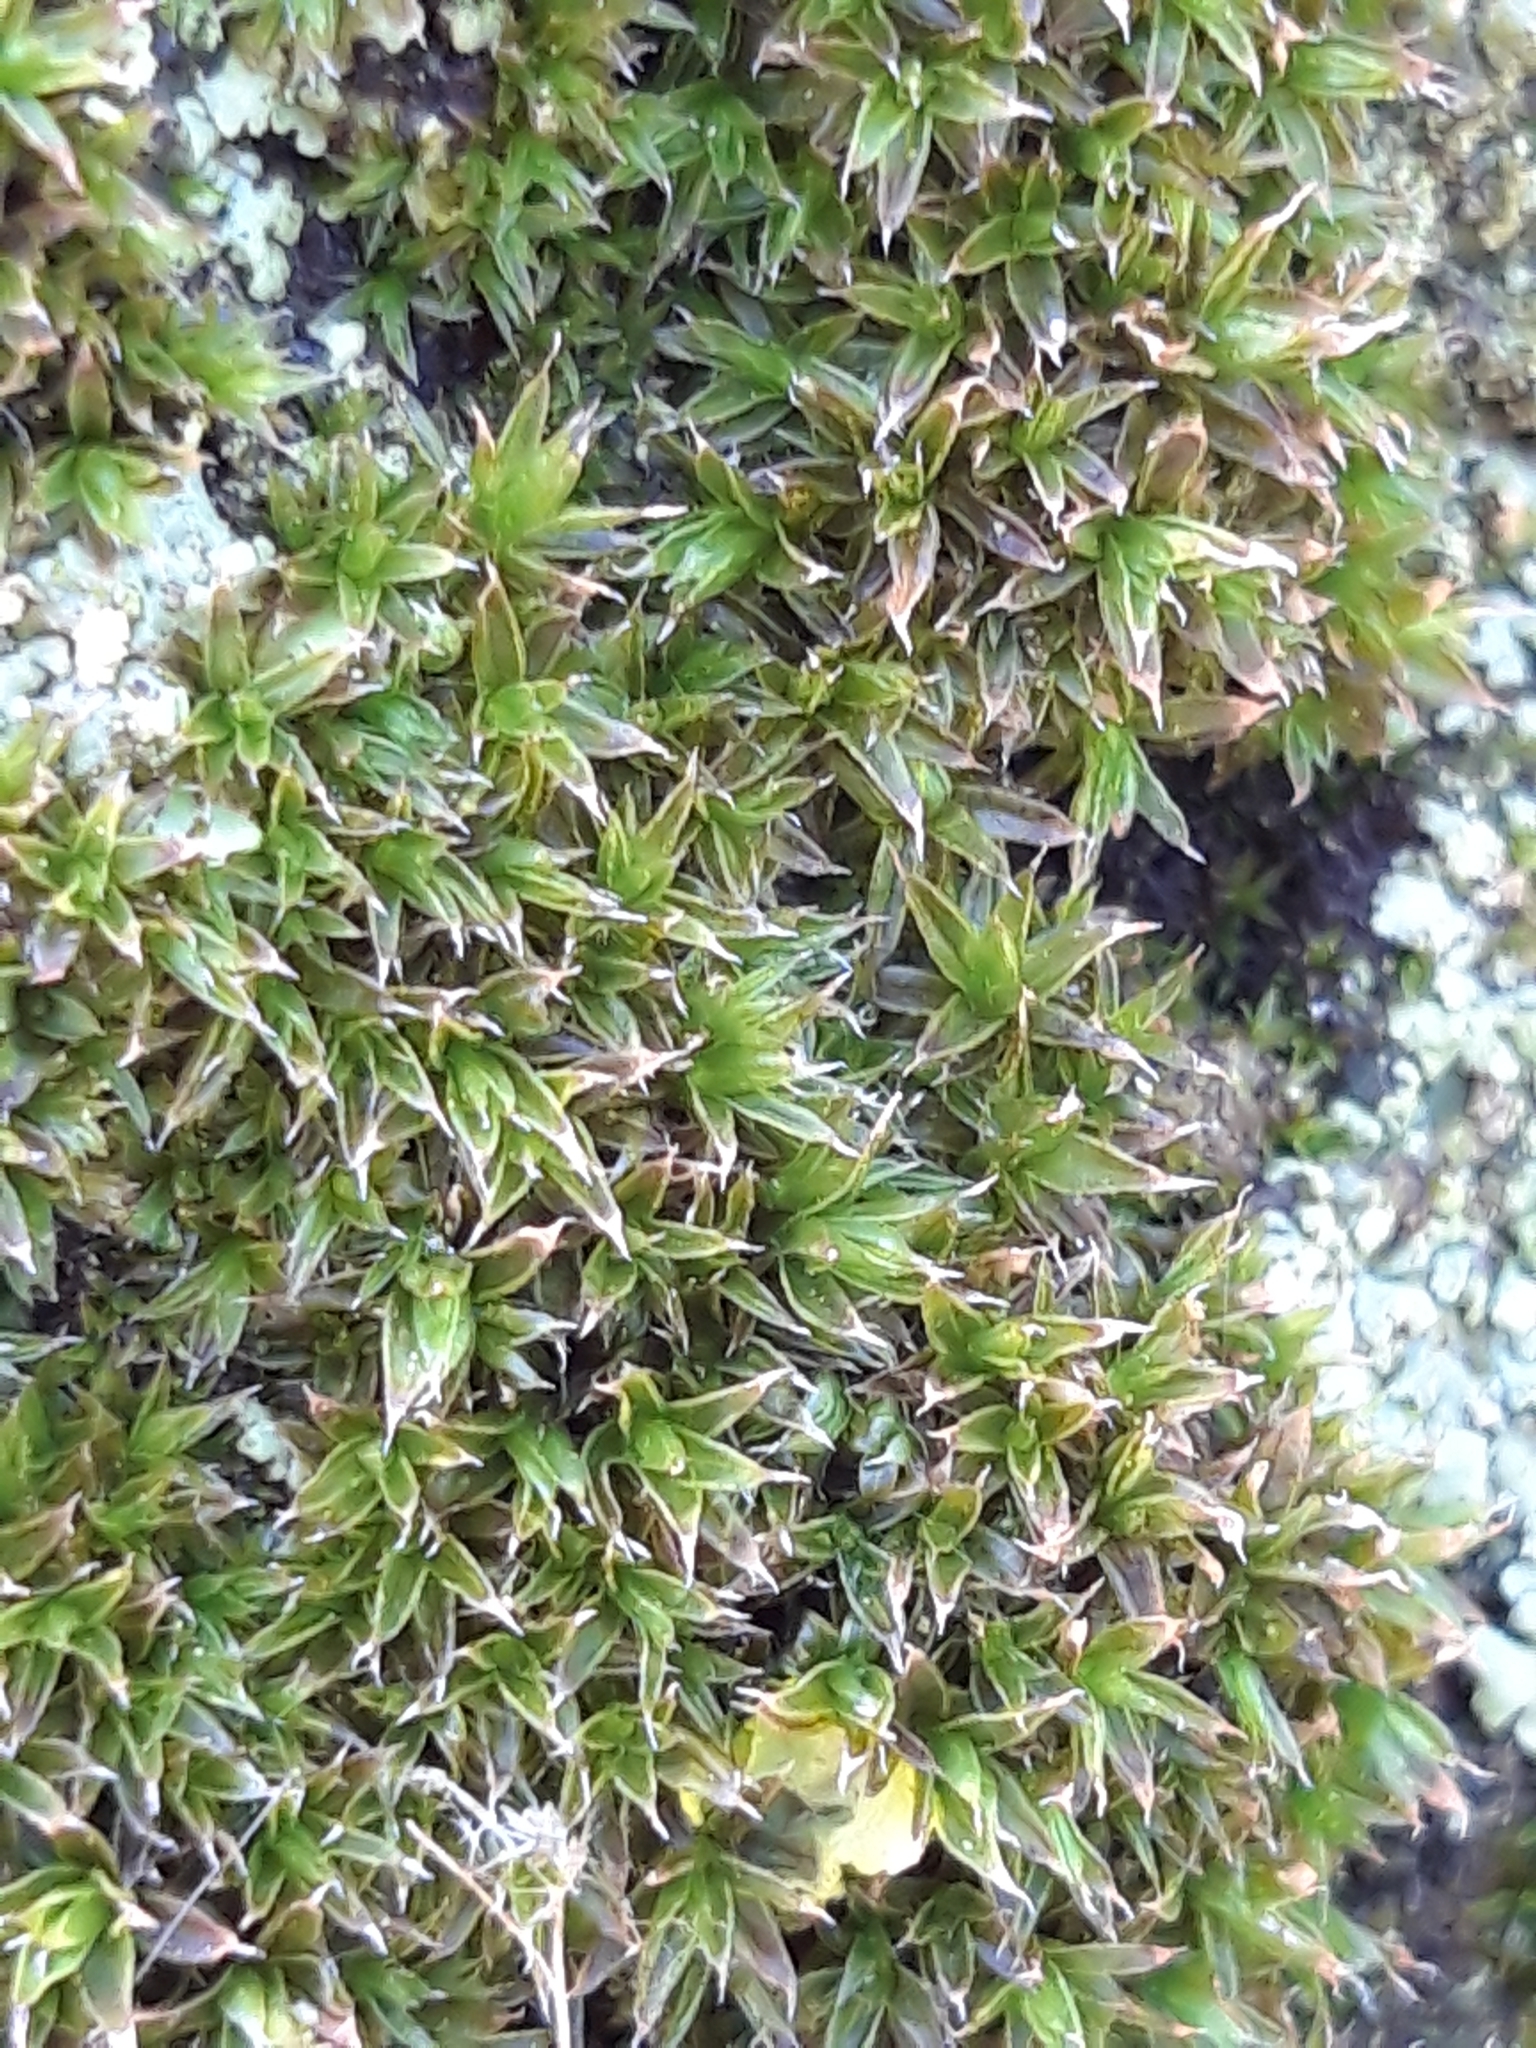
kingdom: Plantae
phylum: Bryophyta
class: Bryopsida
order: Orthotrichales
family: Orthotrichaceae
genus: Orthotrichum
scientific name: Orthotrichum diaphanum
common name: White-tipped bristle-moss
